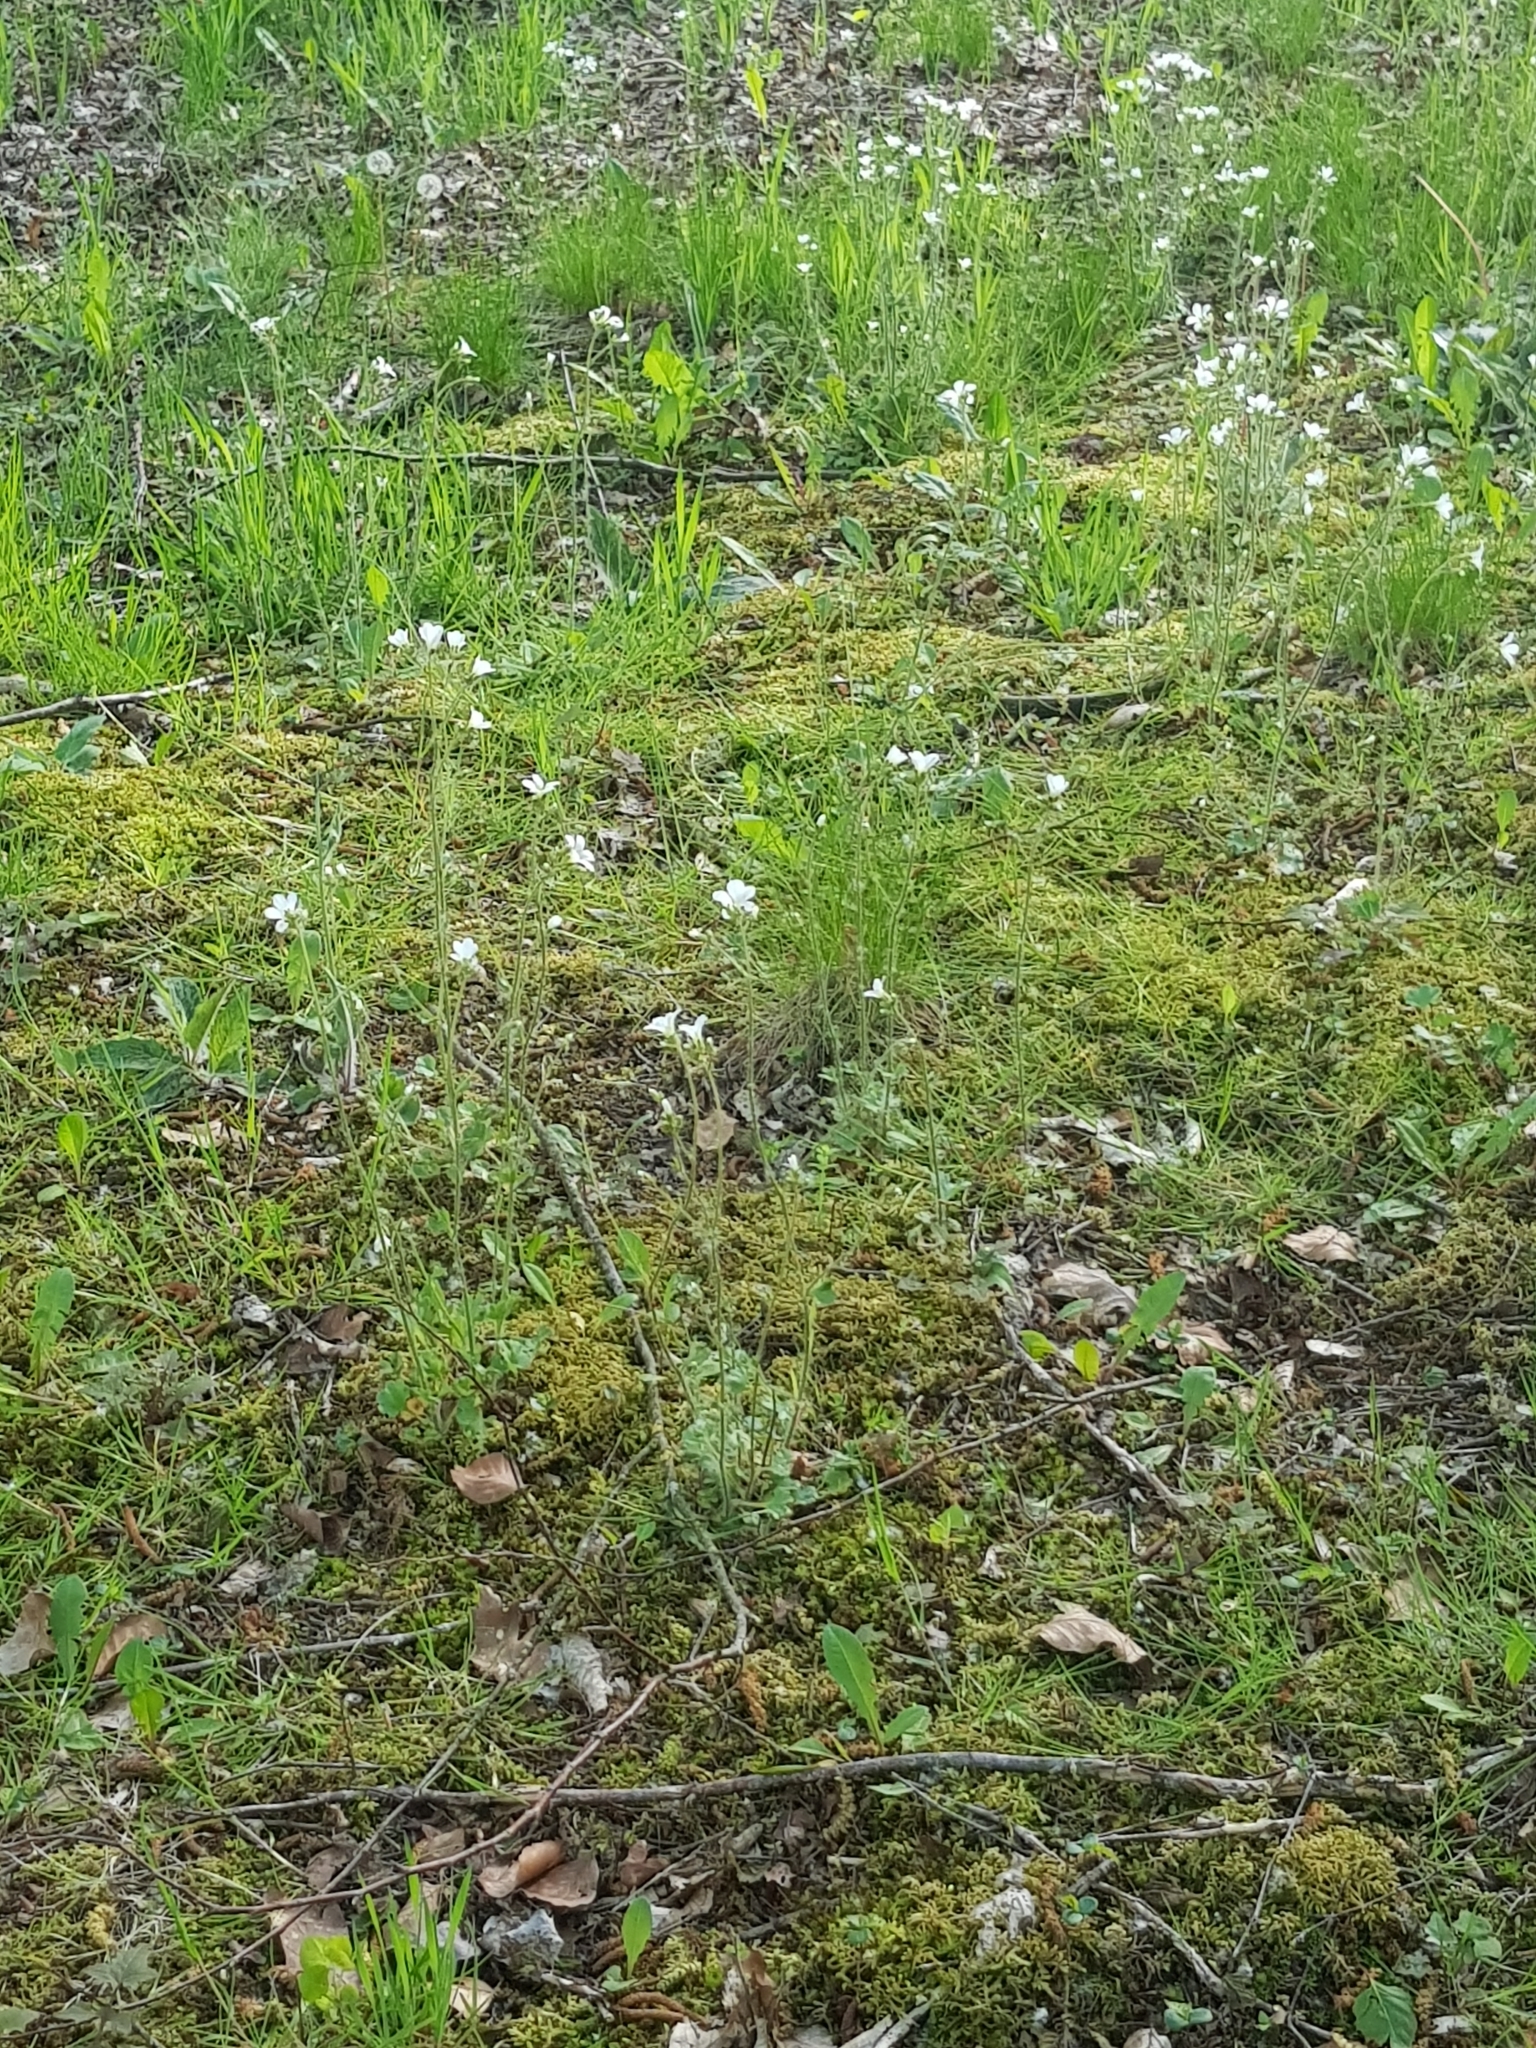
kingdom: Plantae
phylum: Tracheophyta
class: Magnoliopsida
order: Saxifragales
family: Saxifragaceae
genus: Saxifraga
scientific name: Saxifraga granulata
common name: Meadow saxifrage
